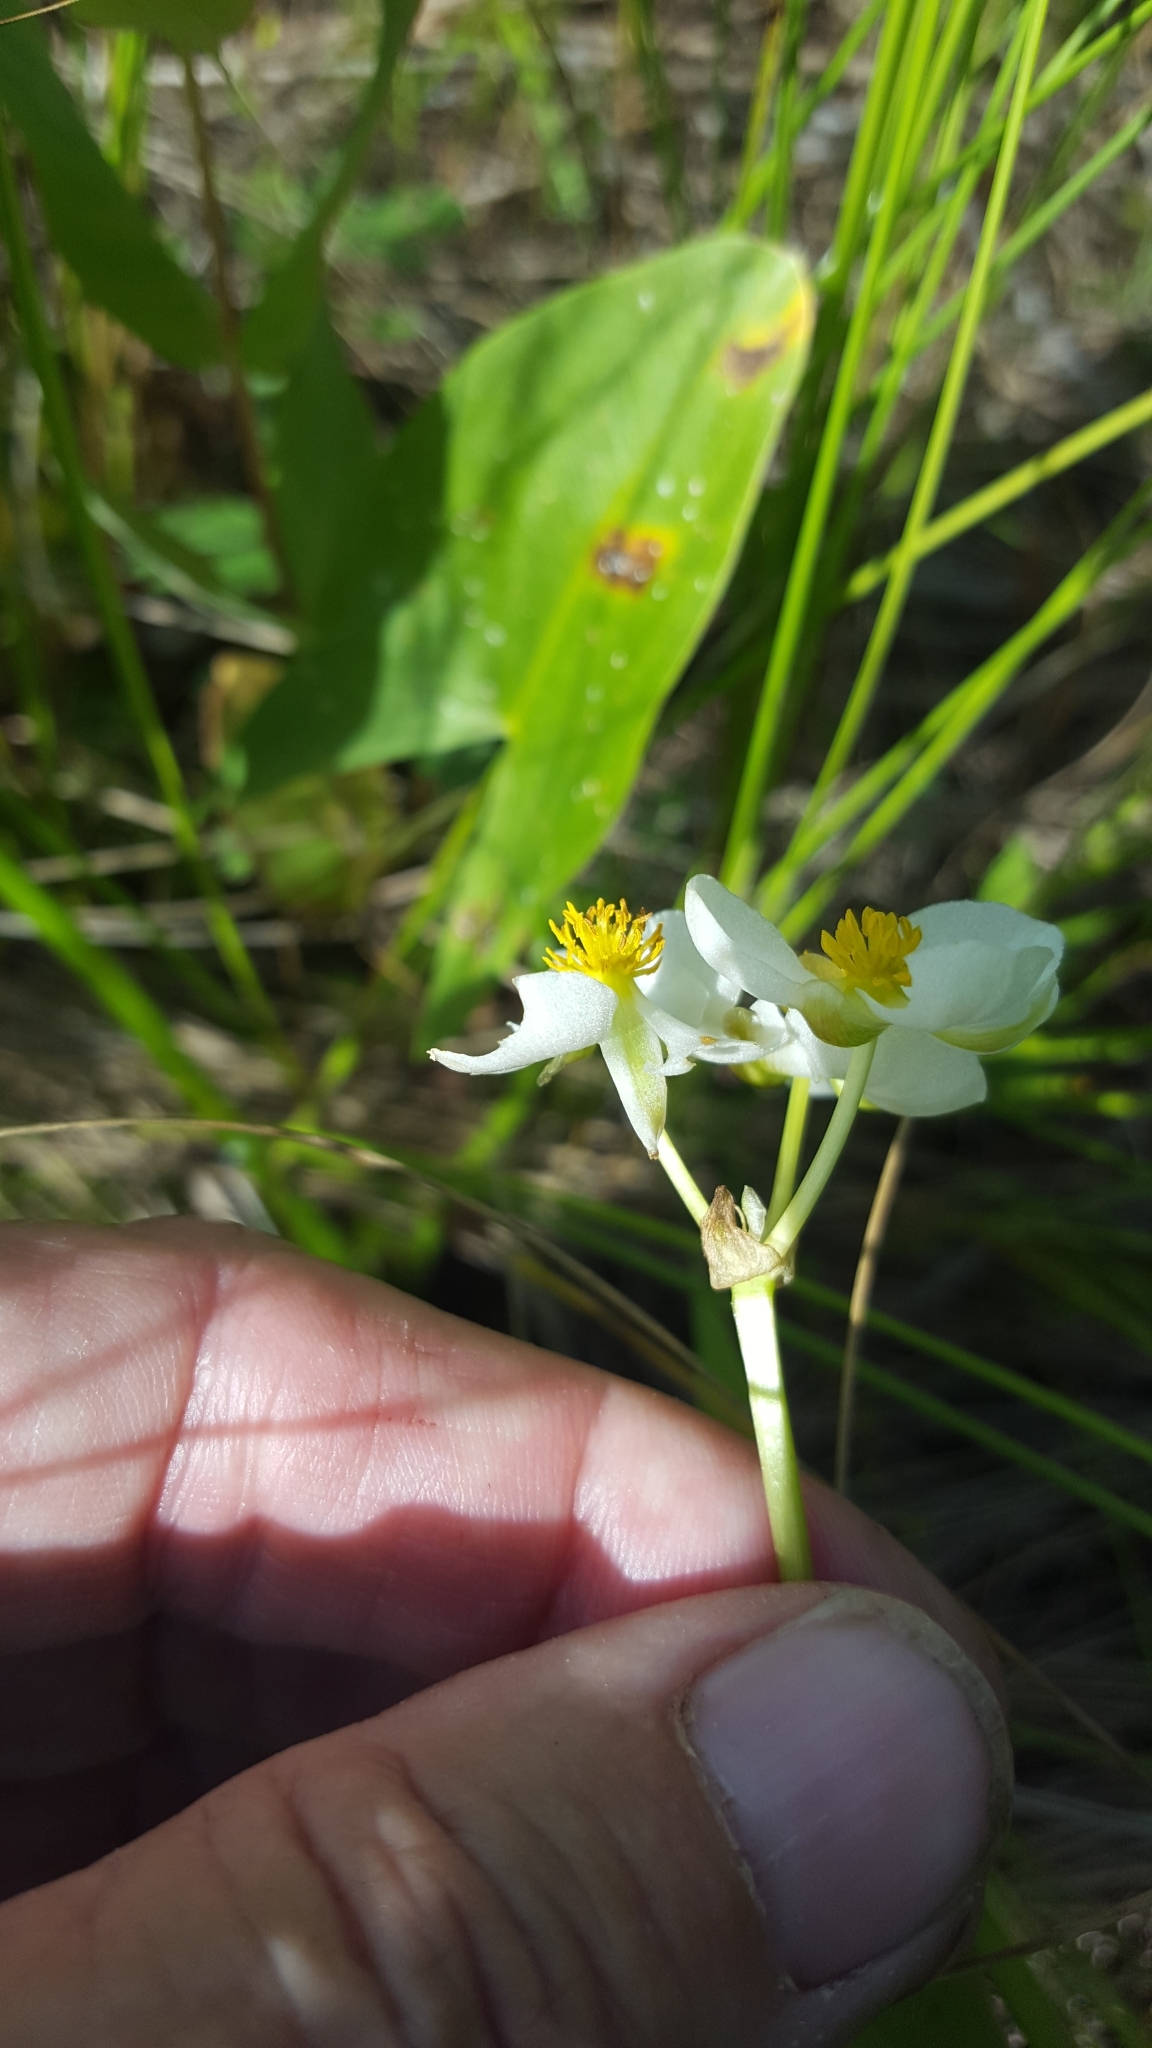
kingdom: Plantae
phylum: Tracheophyta
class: Liliopsida
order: Alismatales
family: Alismataceae
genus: Sagittaria
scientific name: Sagittaria latifolia
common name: Duck-potato
